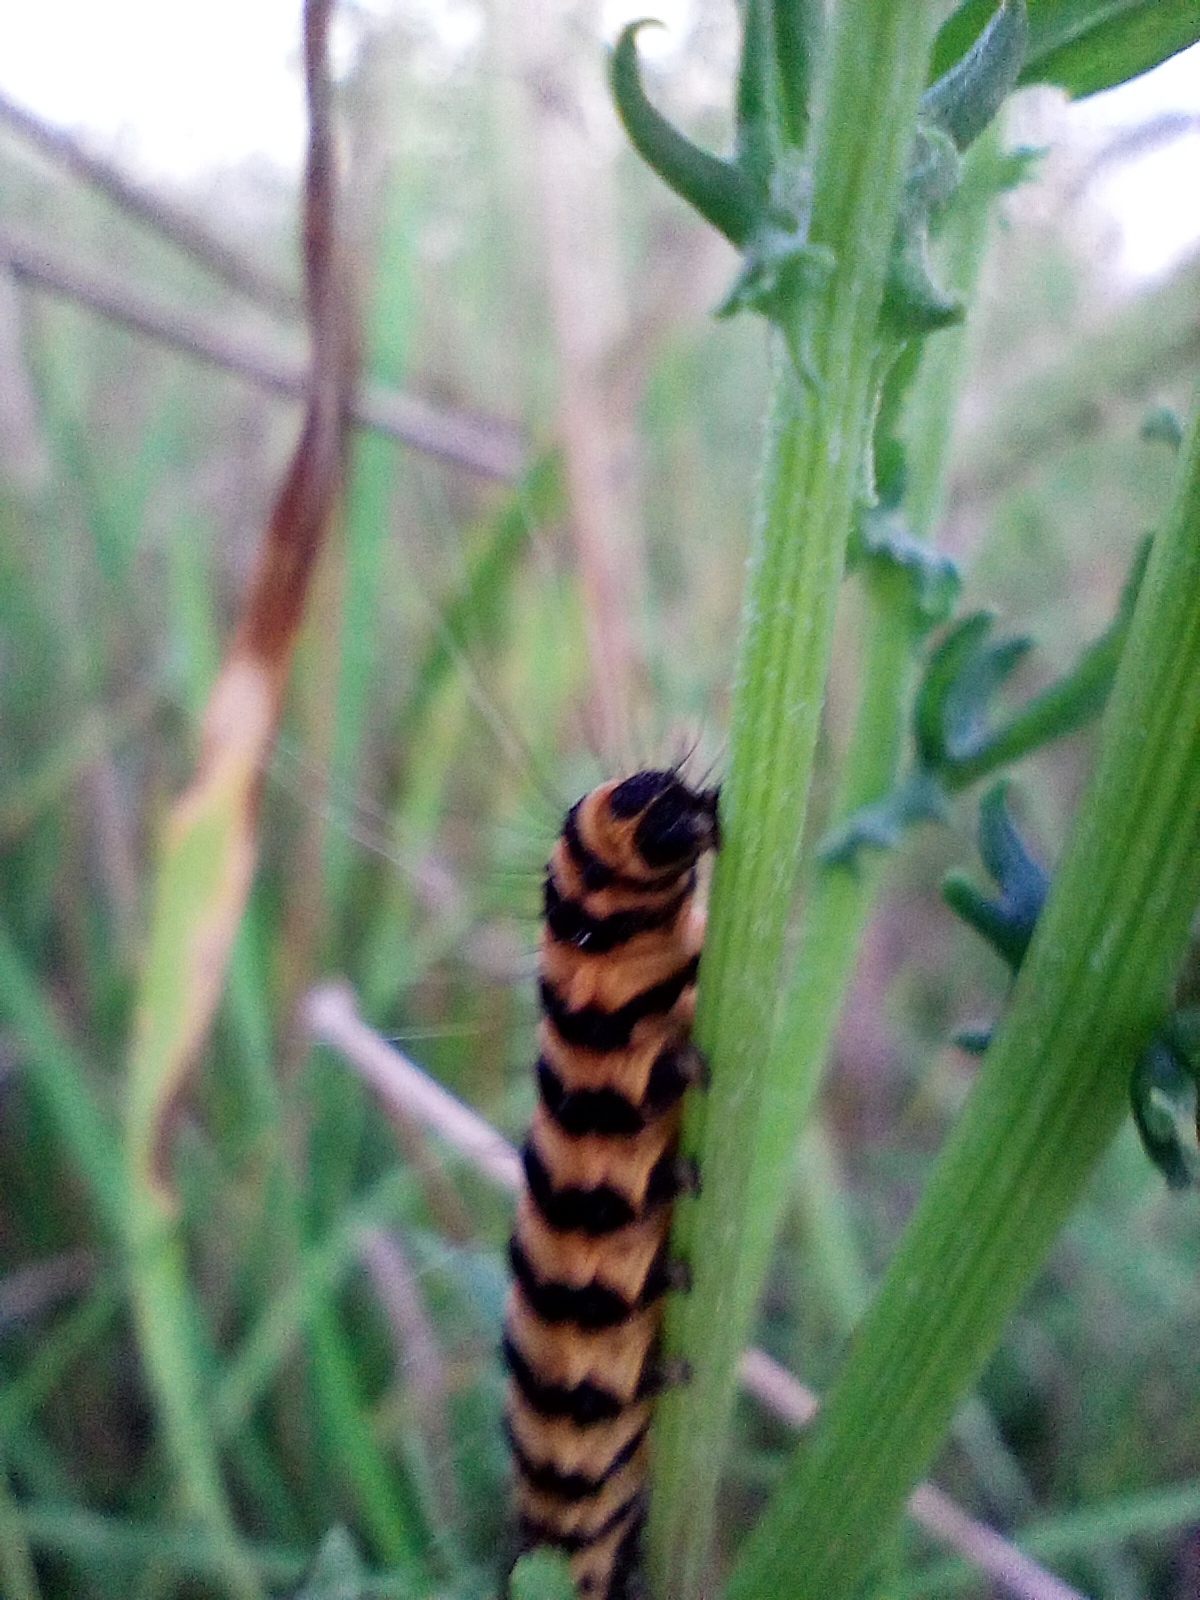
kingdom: Animalia
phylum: Arthropoda
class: Insecta
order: Lepidoptera
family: Erebidae
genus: Tyria
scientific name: Tyria jacobaeae
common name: Cinnabar
